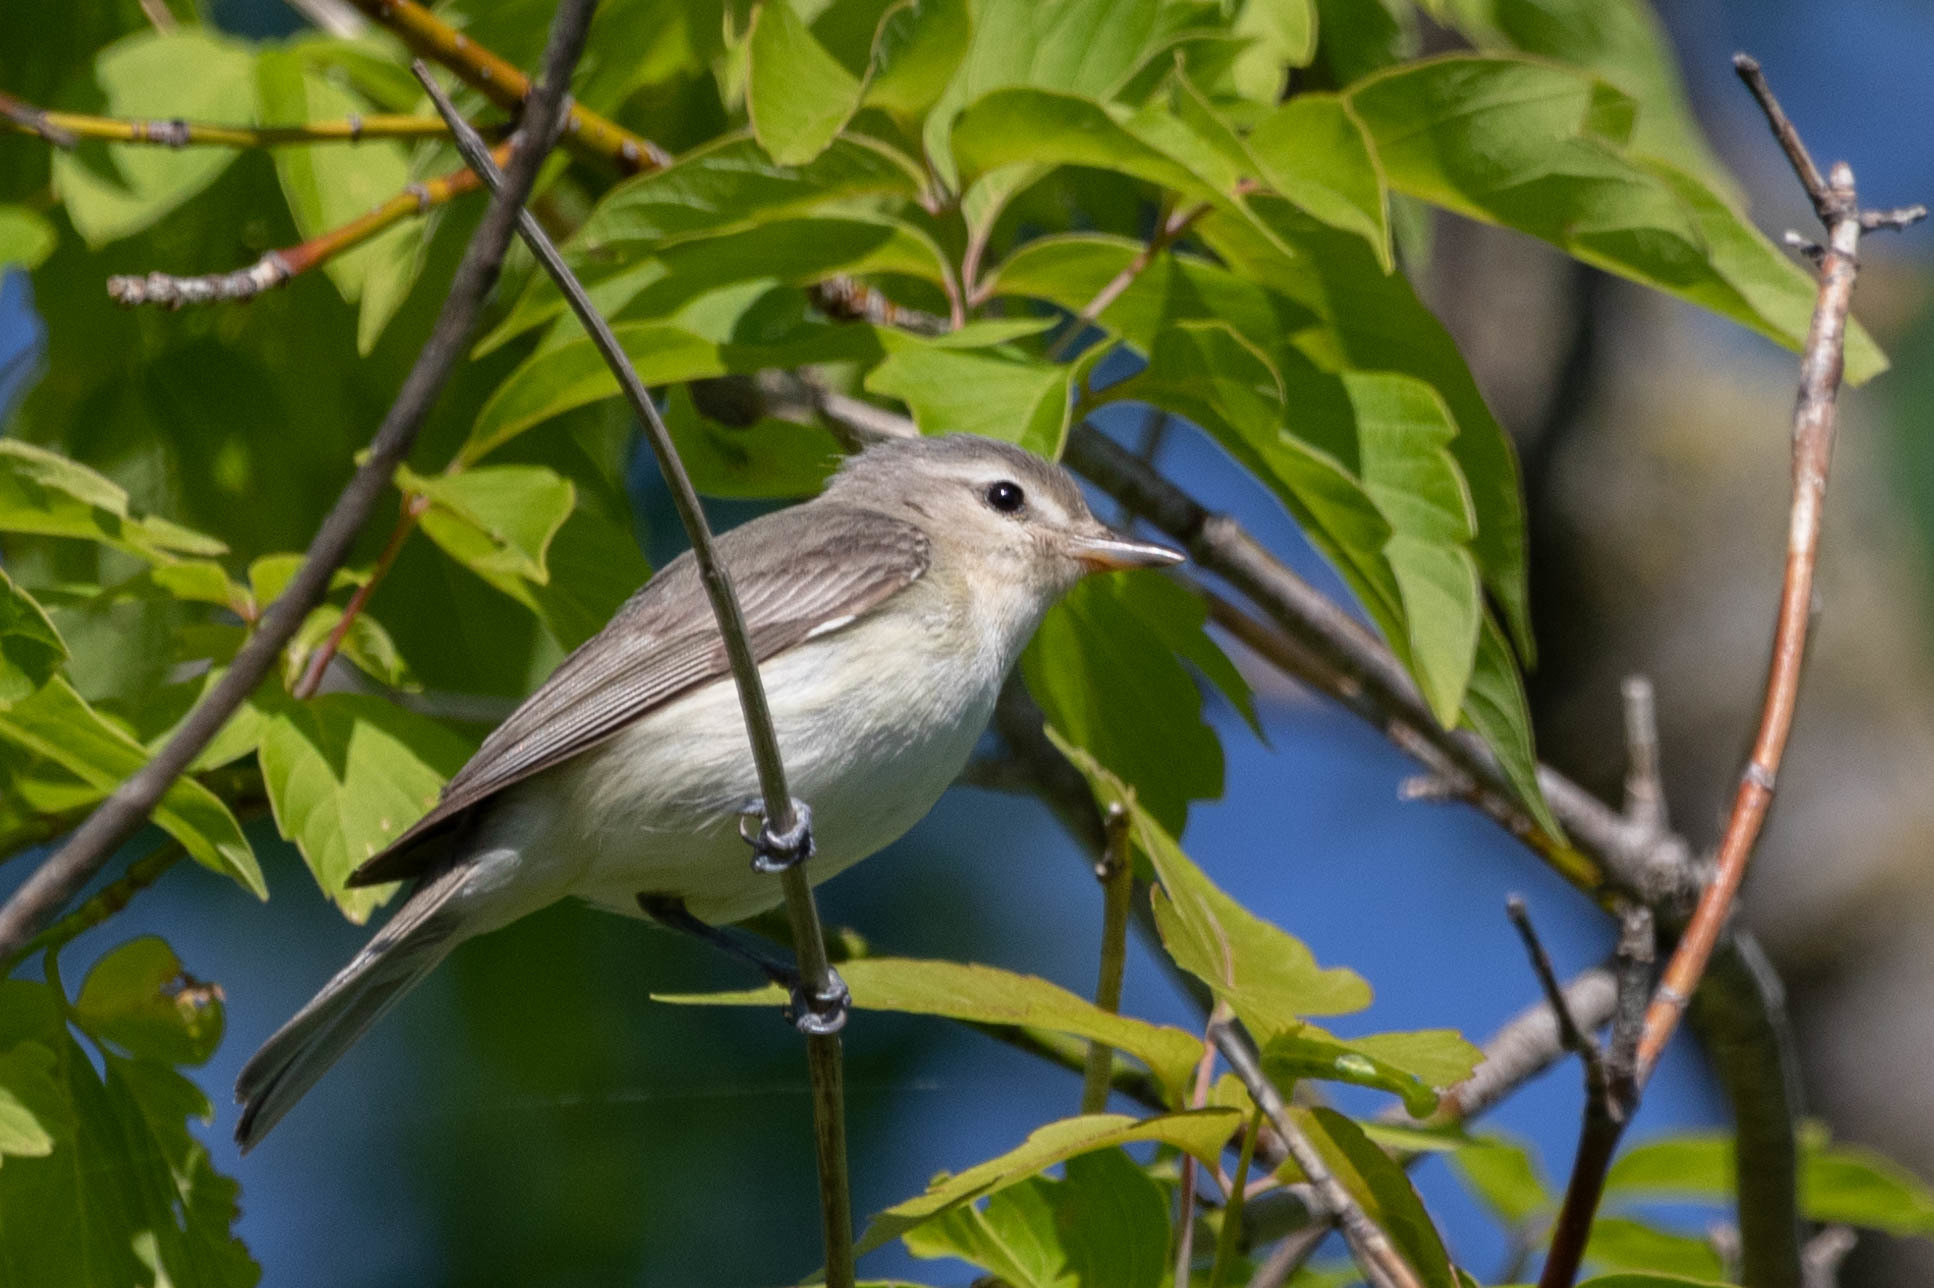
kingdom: Animalia
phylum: Chordata
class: Aves
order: Passeriformes
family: Vireonidae
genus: Vireo
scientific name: Vireo gilvus
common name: Warbling vireo
